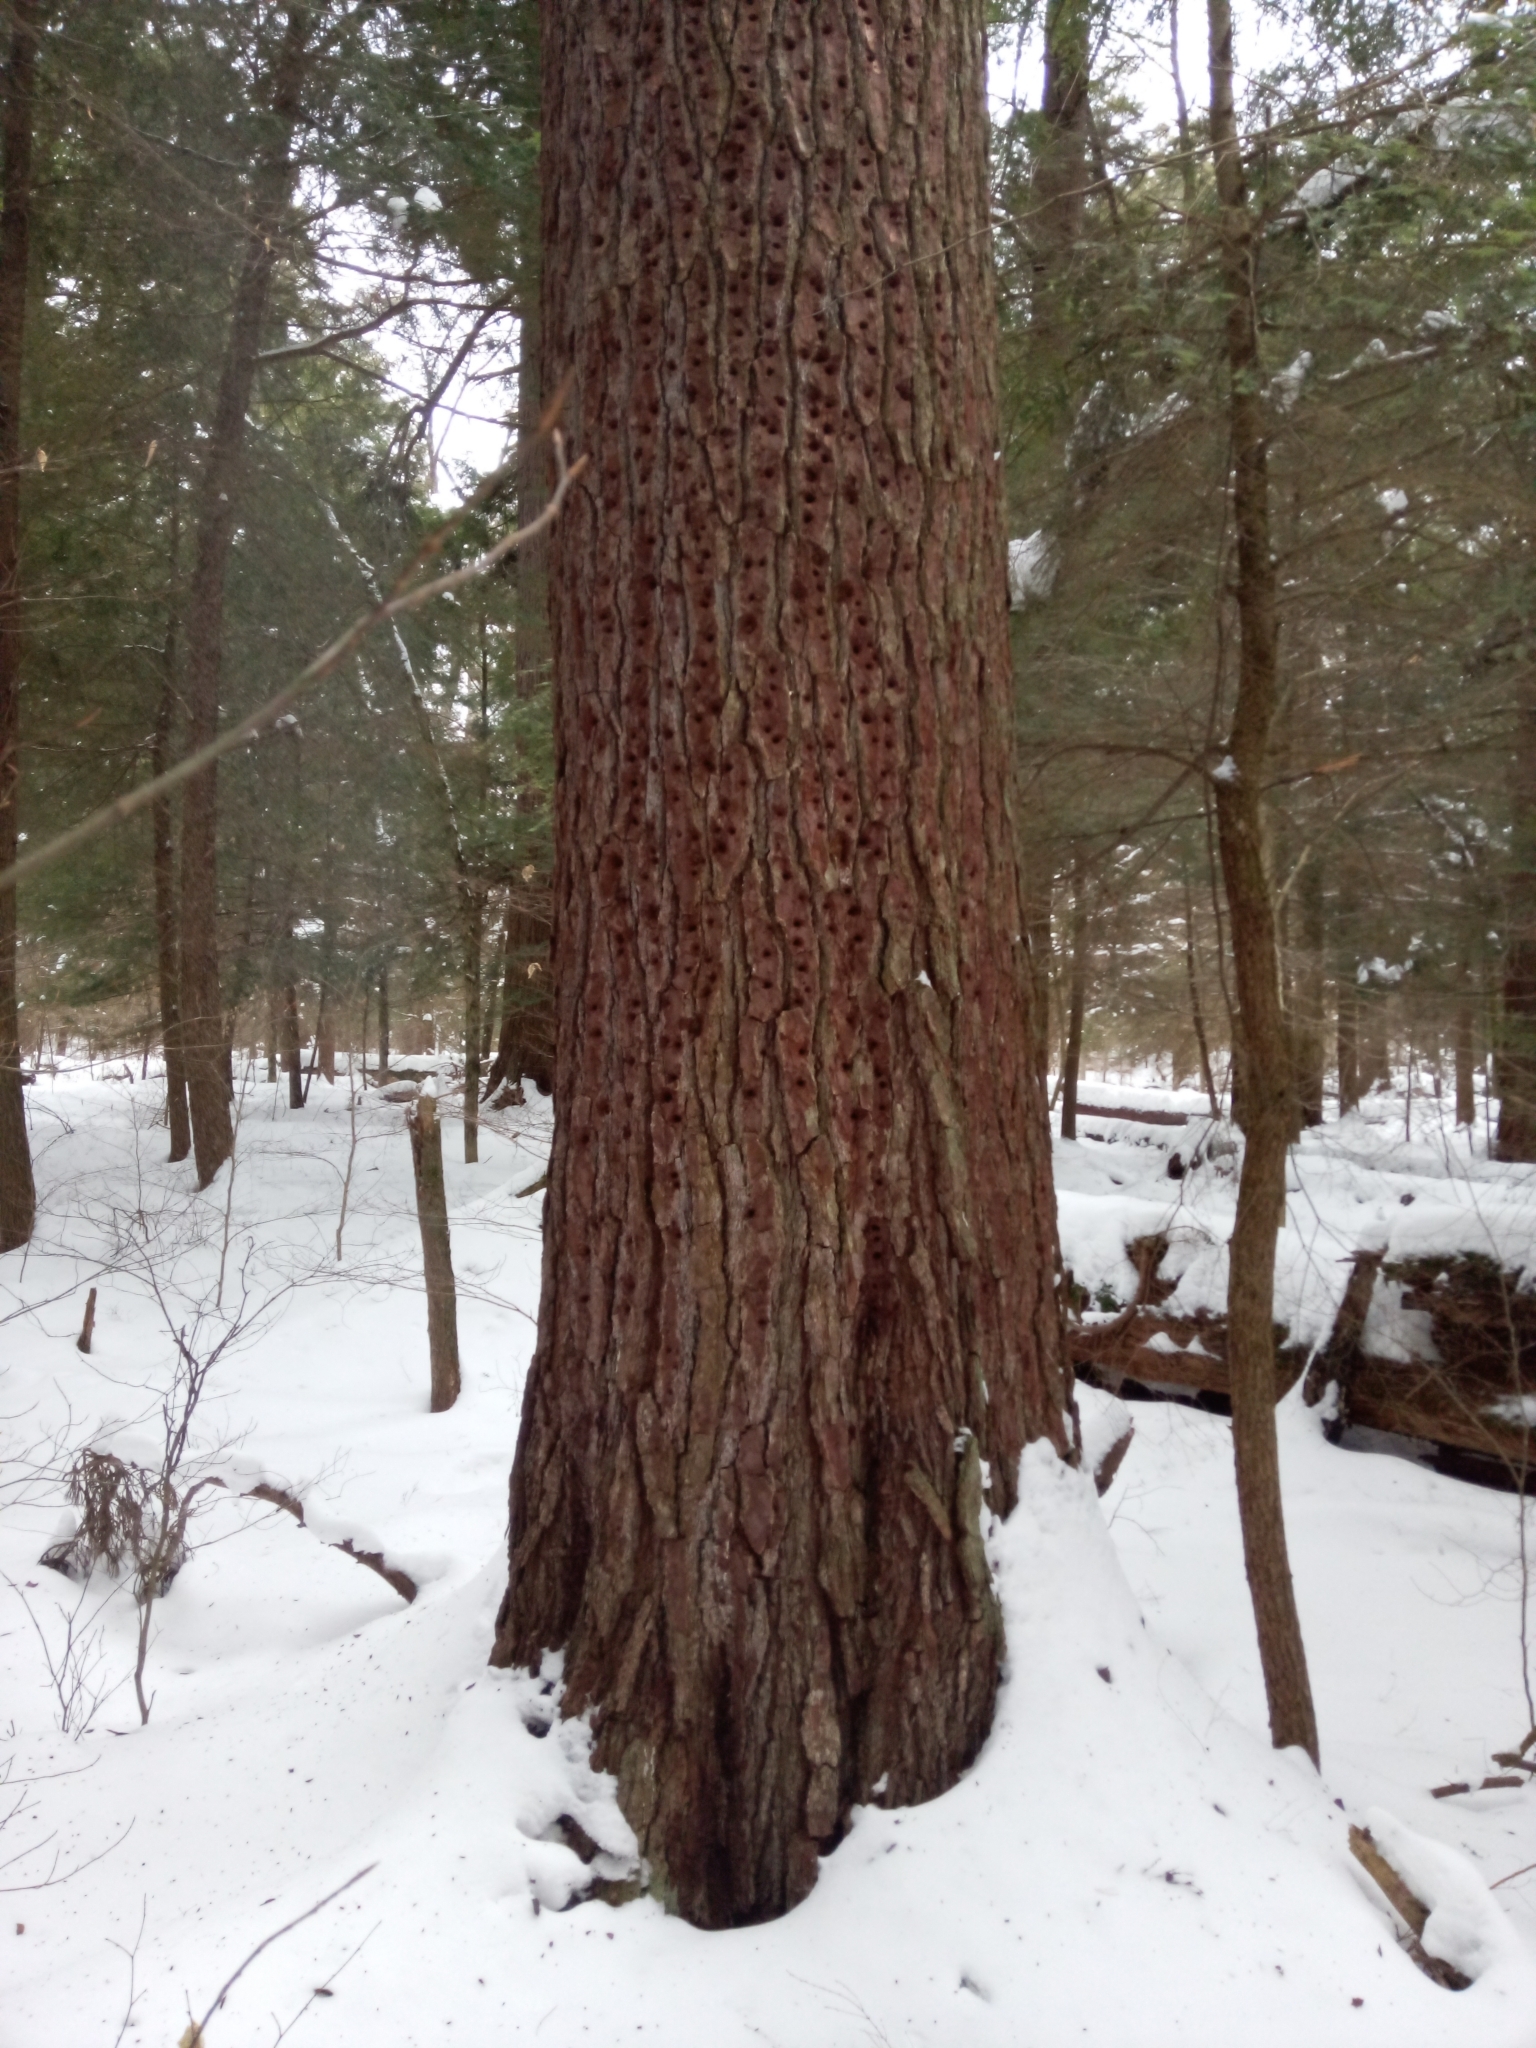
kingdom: Plantae
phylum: Tracheophyta
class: Pinopsida
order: Pinales
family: Pinaceae
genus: Pinus
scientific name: Pinus strobus
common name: Weymouth pine
